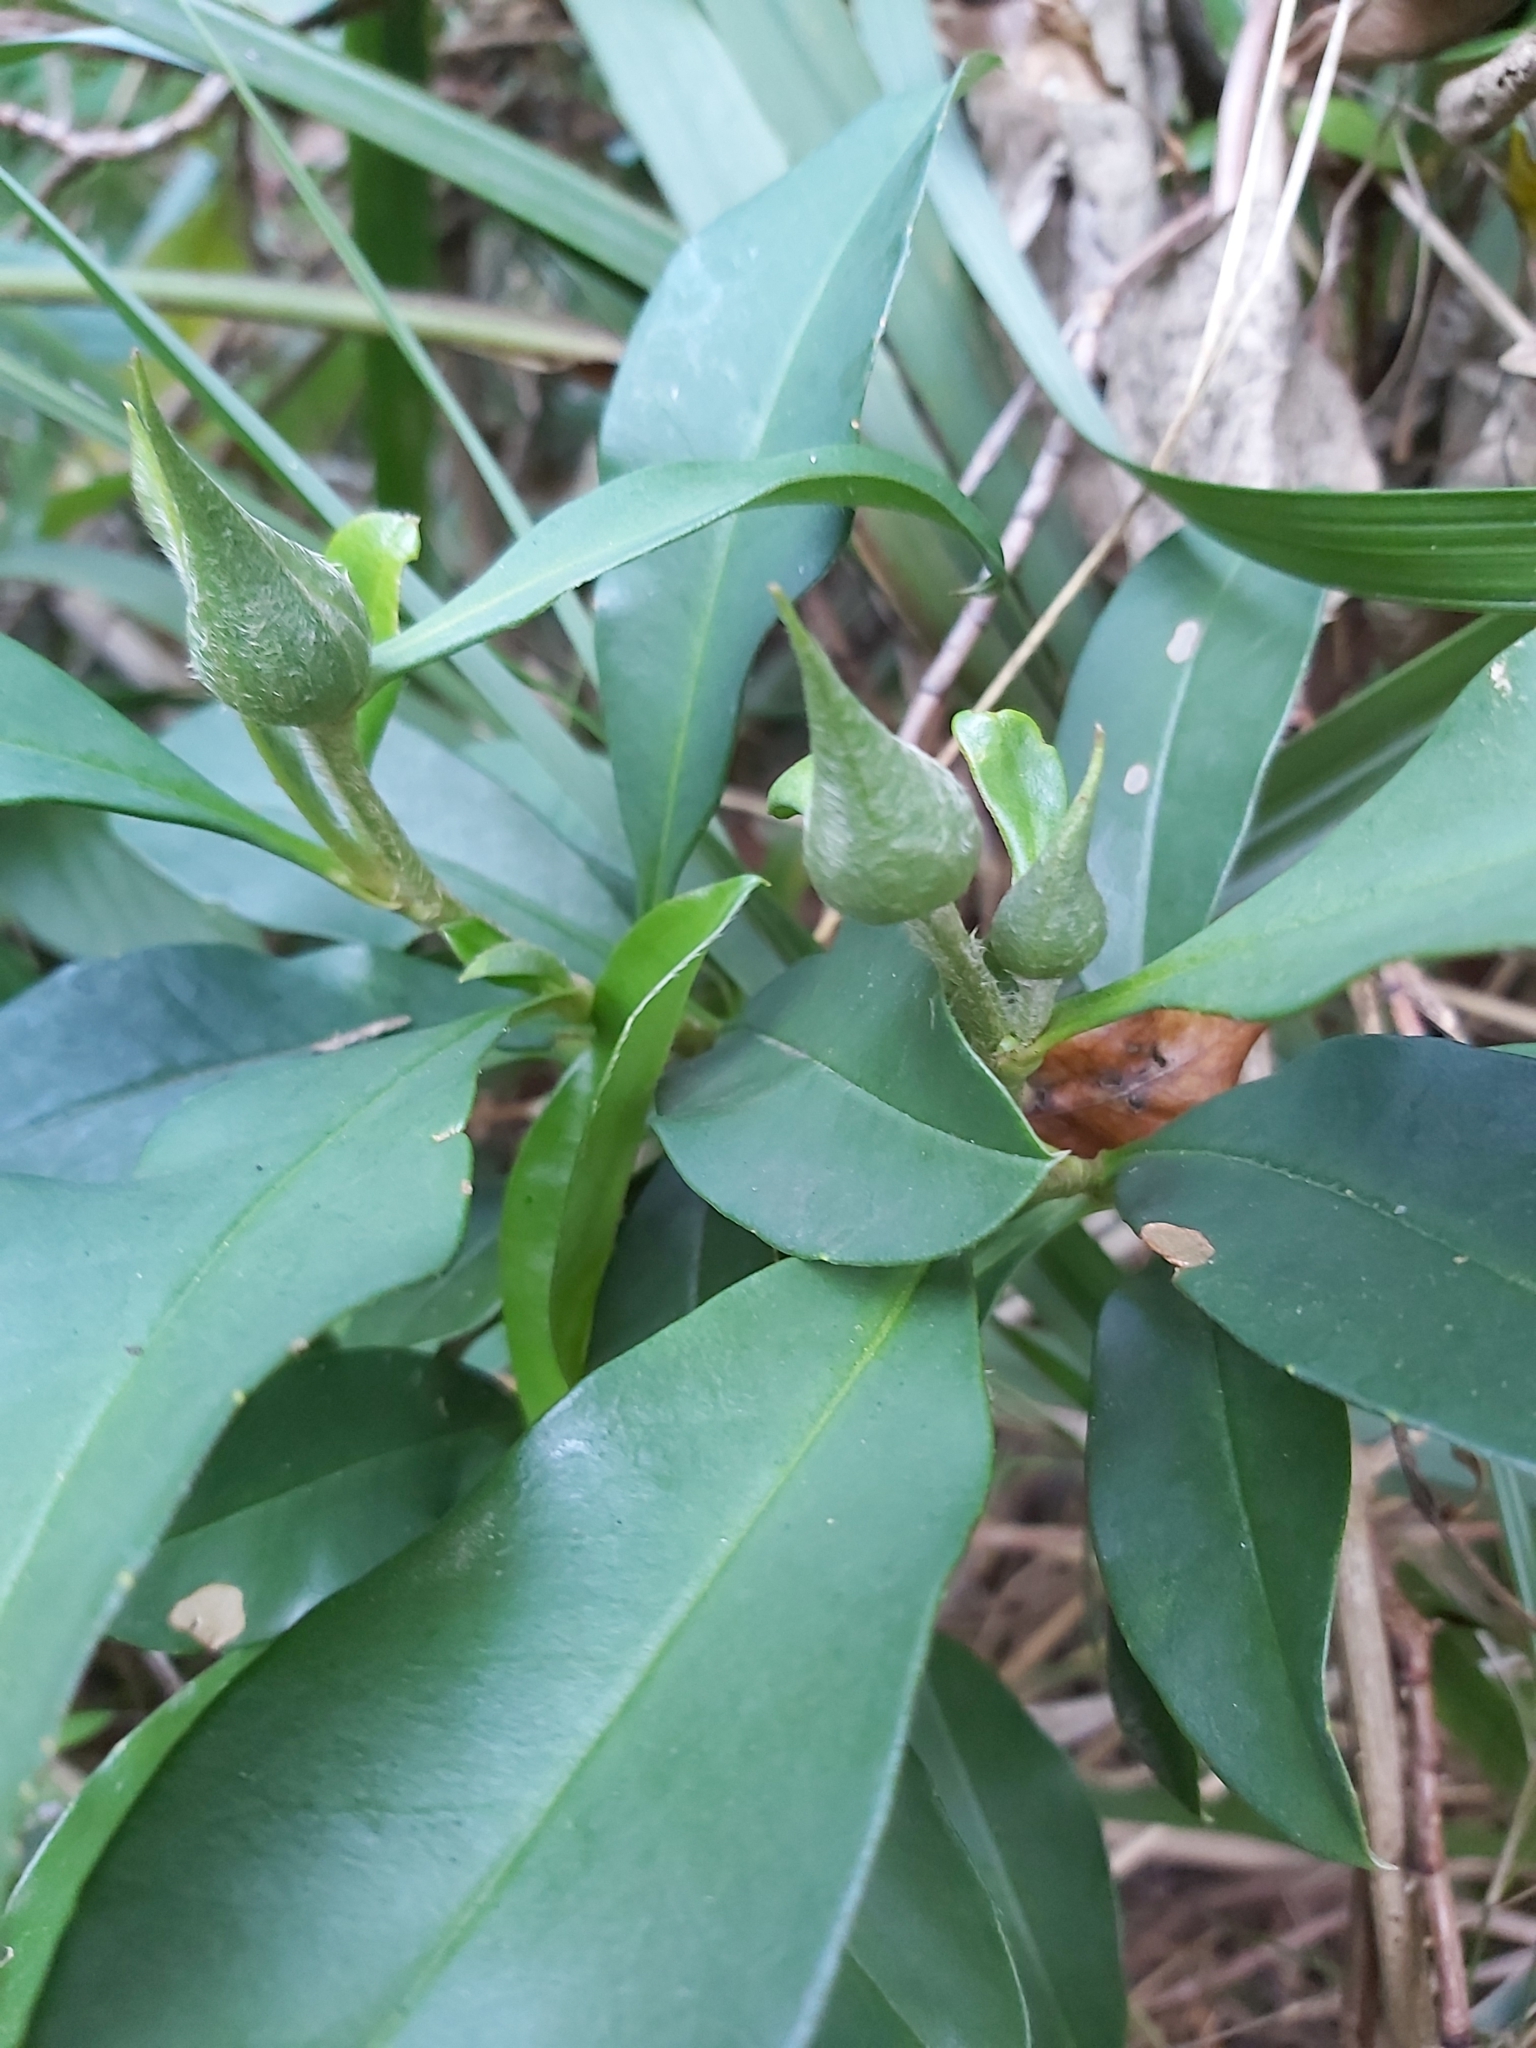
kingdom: Plantae
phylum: Tracheophyta
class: Magnoliopsida
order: Dilleniales
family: Dilleniaceae
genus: Hibbertia
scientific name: Hibbertia scandens
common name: Climbing guinea-flower
